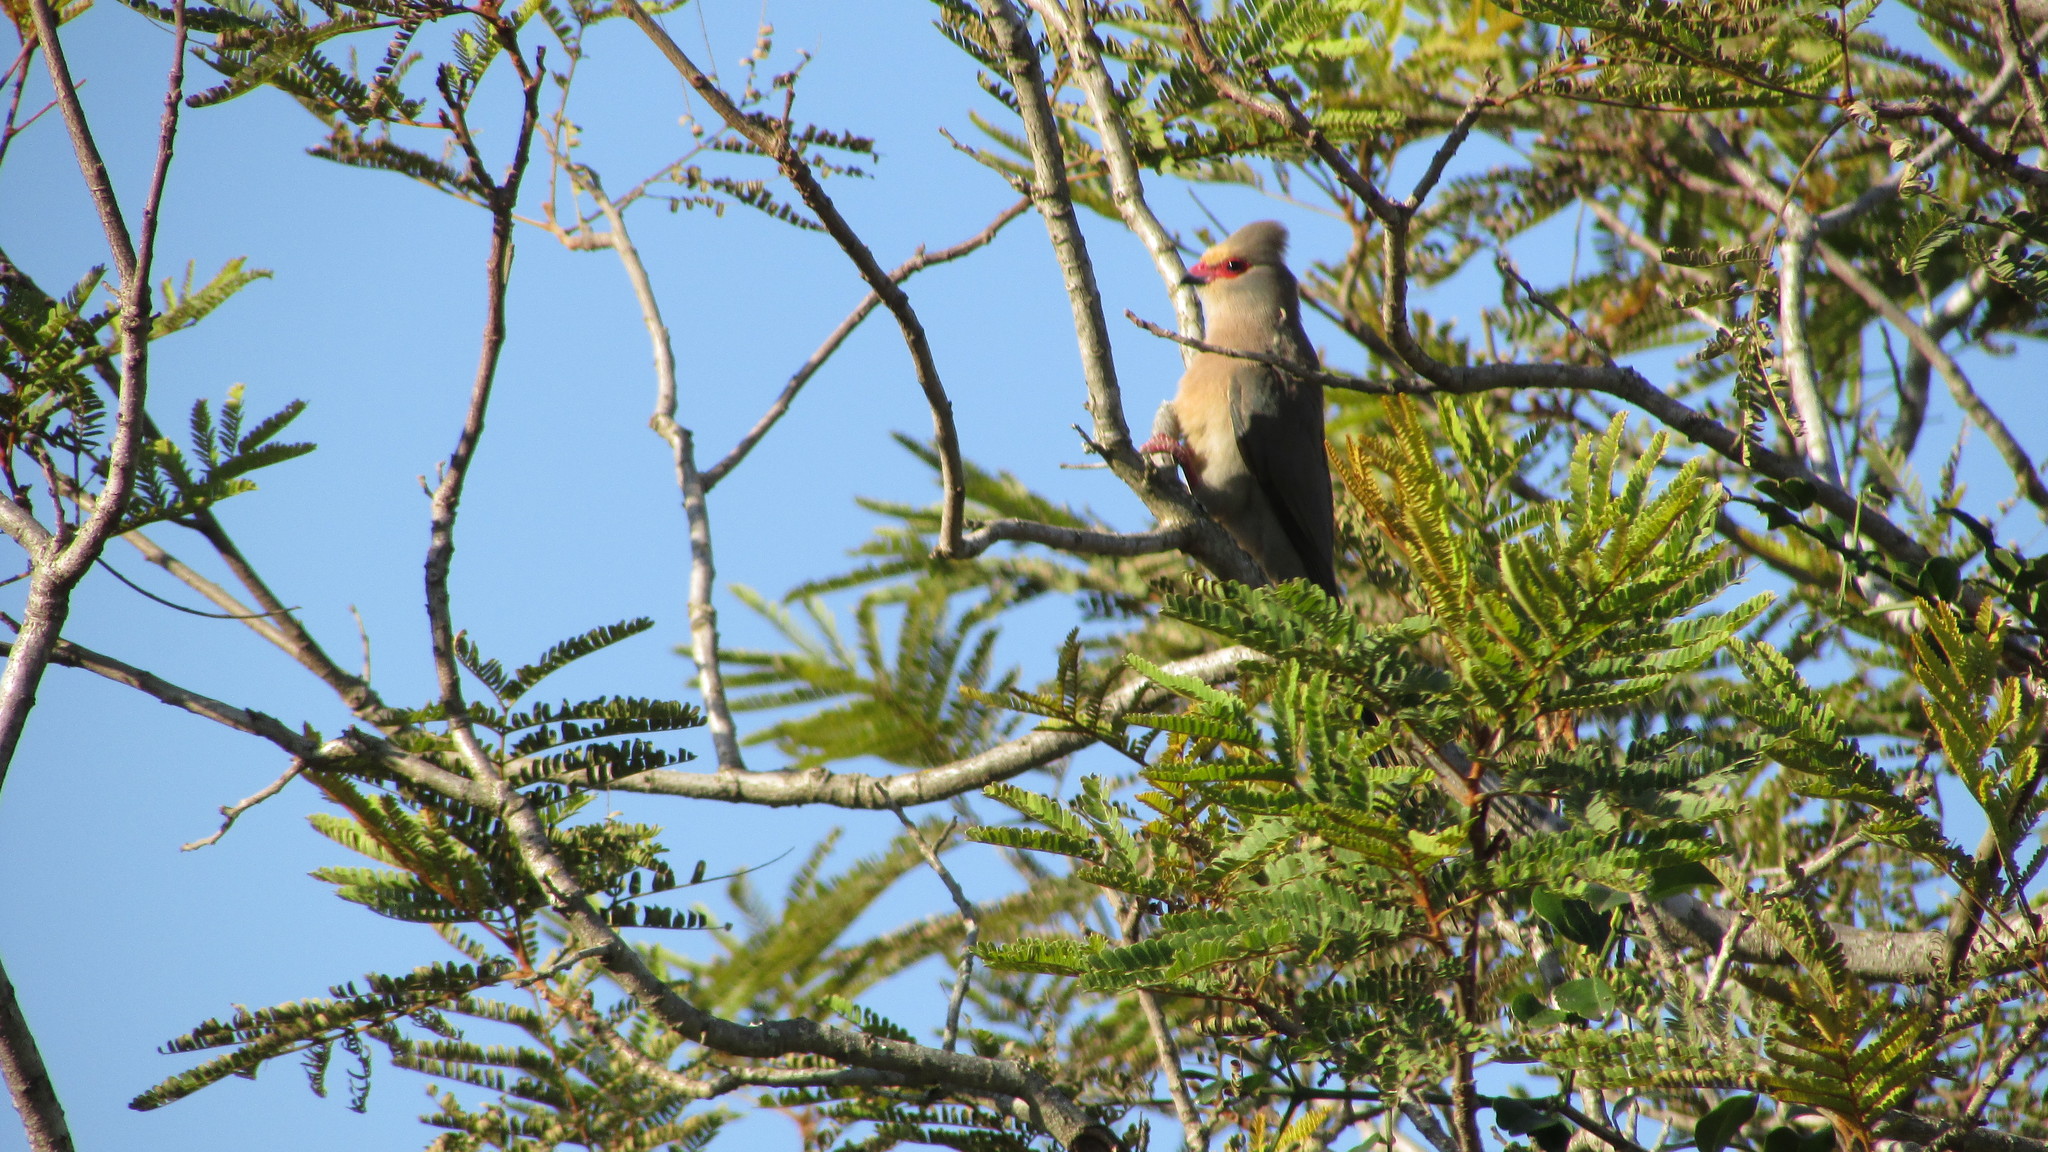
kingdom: Animalia
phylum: Chordata
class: Aves
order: Coliiformes
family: Coliidae
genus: Urocolius
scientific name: Urocolius indicus
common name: Red-faced mousebird
